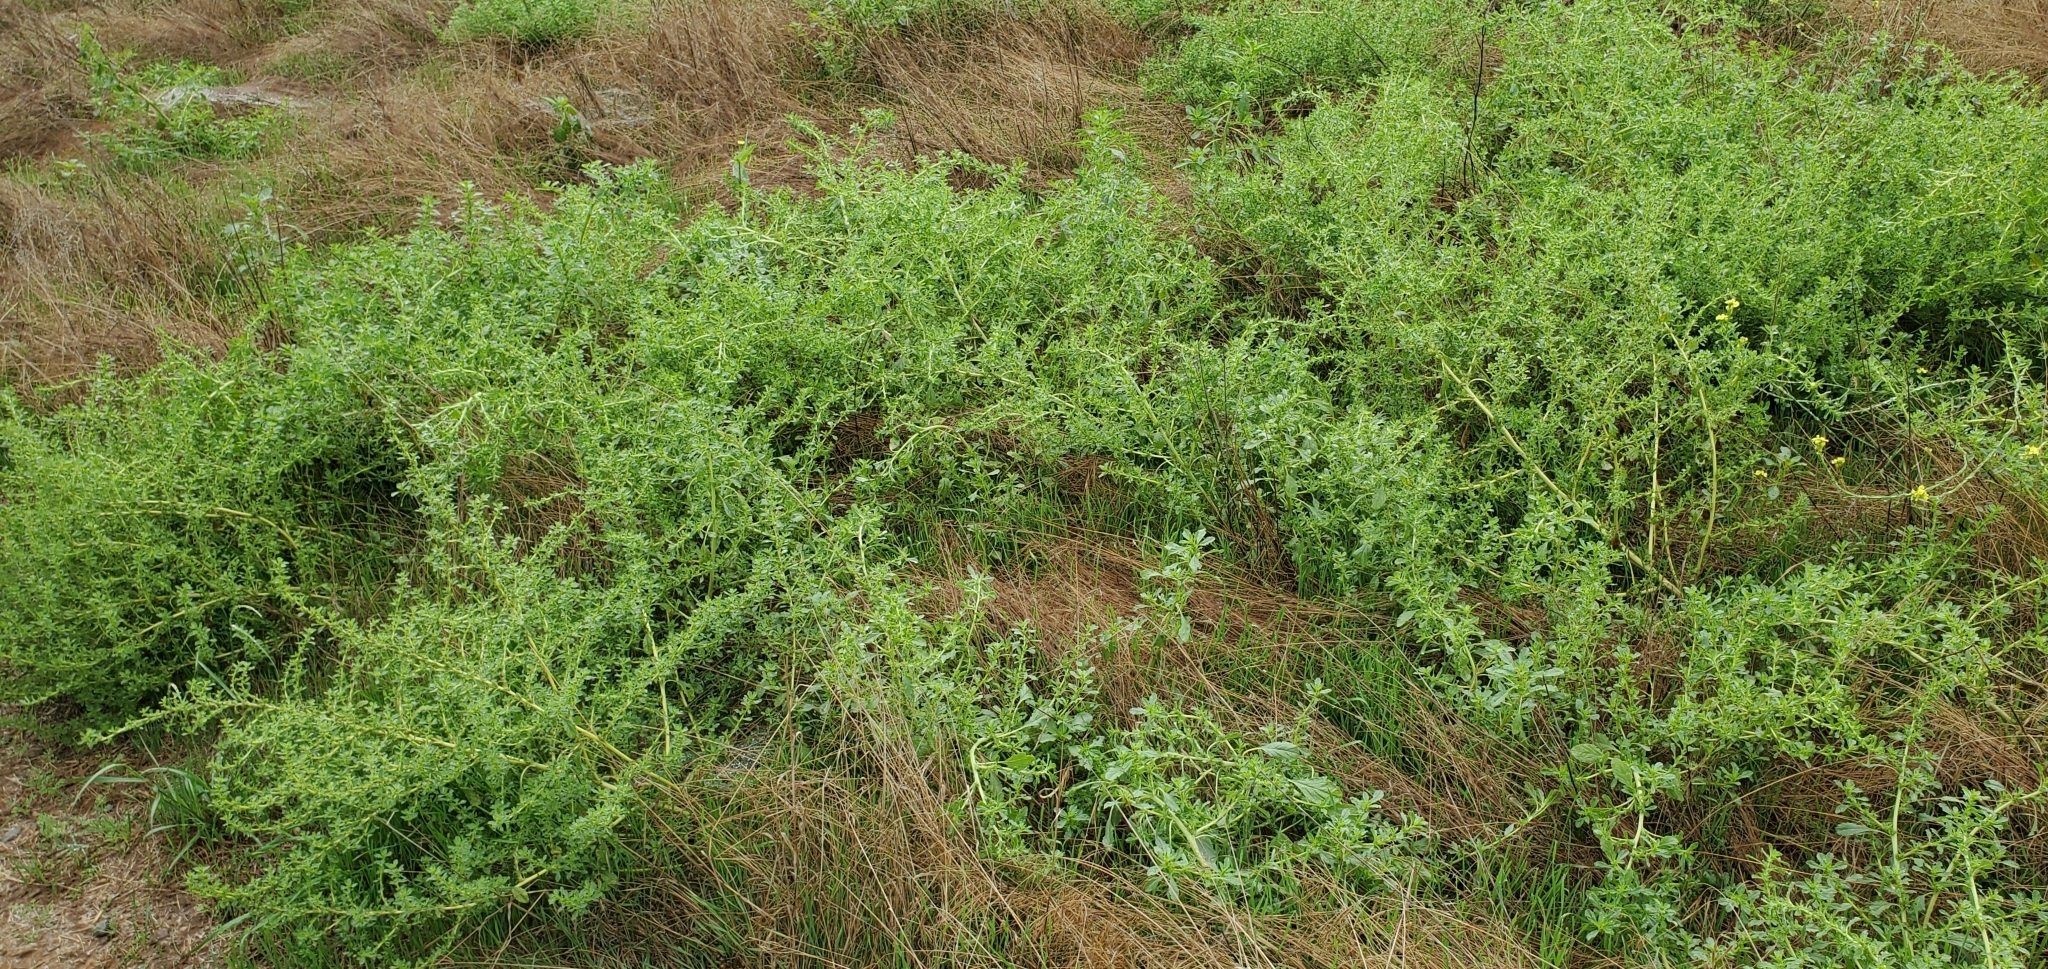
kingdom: Plantae
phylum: Tracheophyta
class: Magnoliopsida
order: Caryophyllales
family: Amaranthaceae
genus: Amaranthus
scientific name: Amaranthus albus
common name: White pigweed
